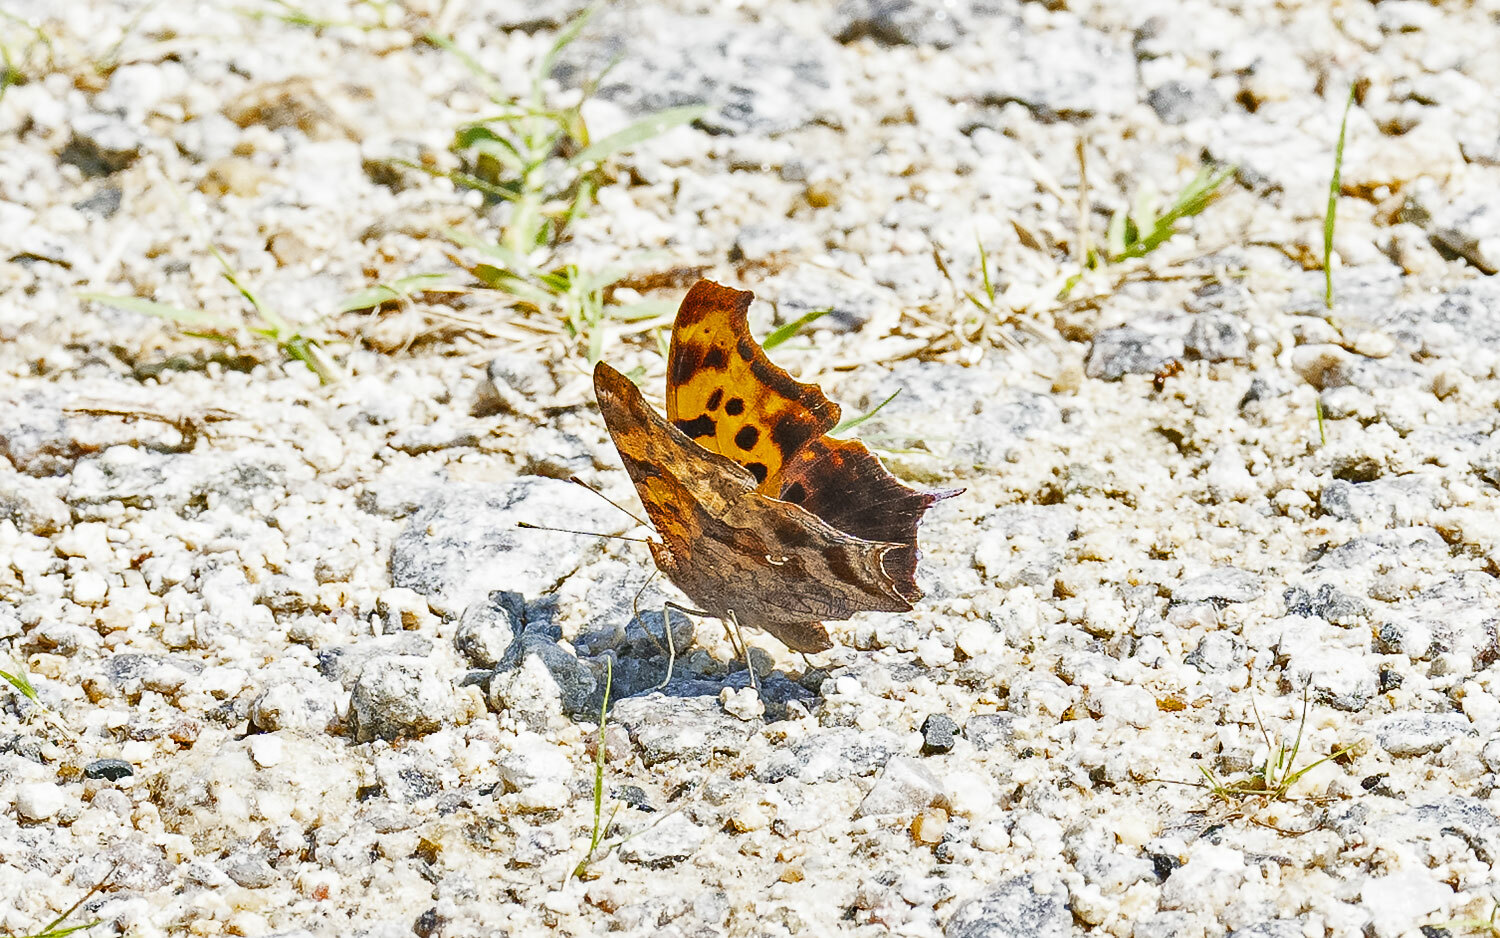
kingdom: Animalia
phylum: Arthropoda
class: Insecta
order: Lepidoptera
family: Nymphalidae
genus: Polygonia
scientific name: Polygonia interrogationis
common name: Question mark
